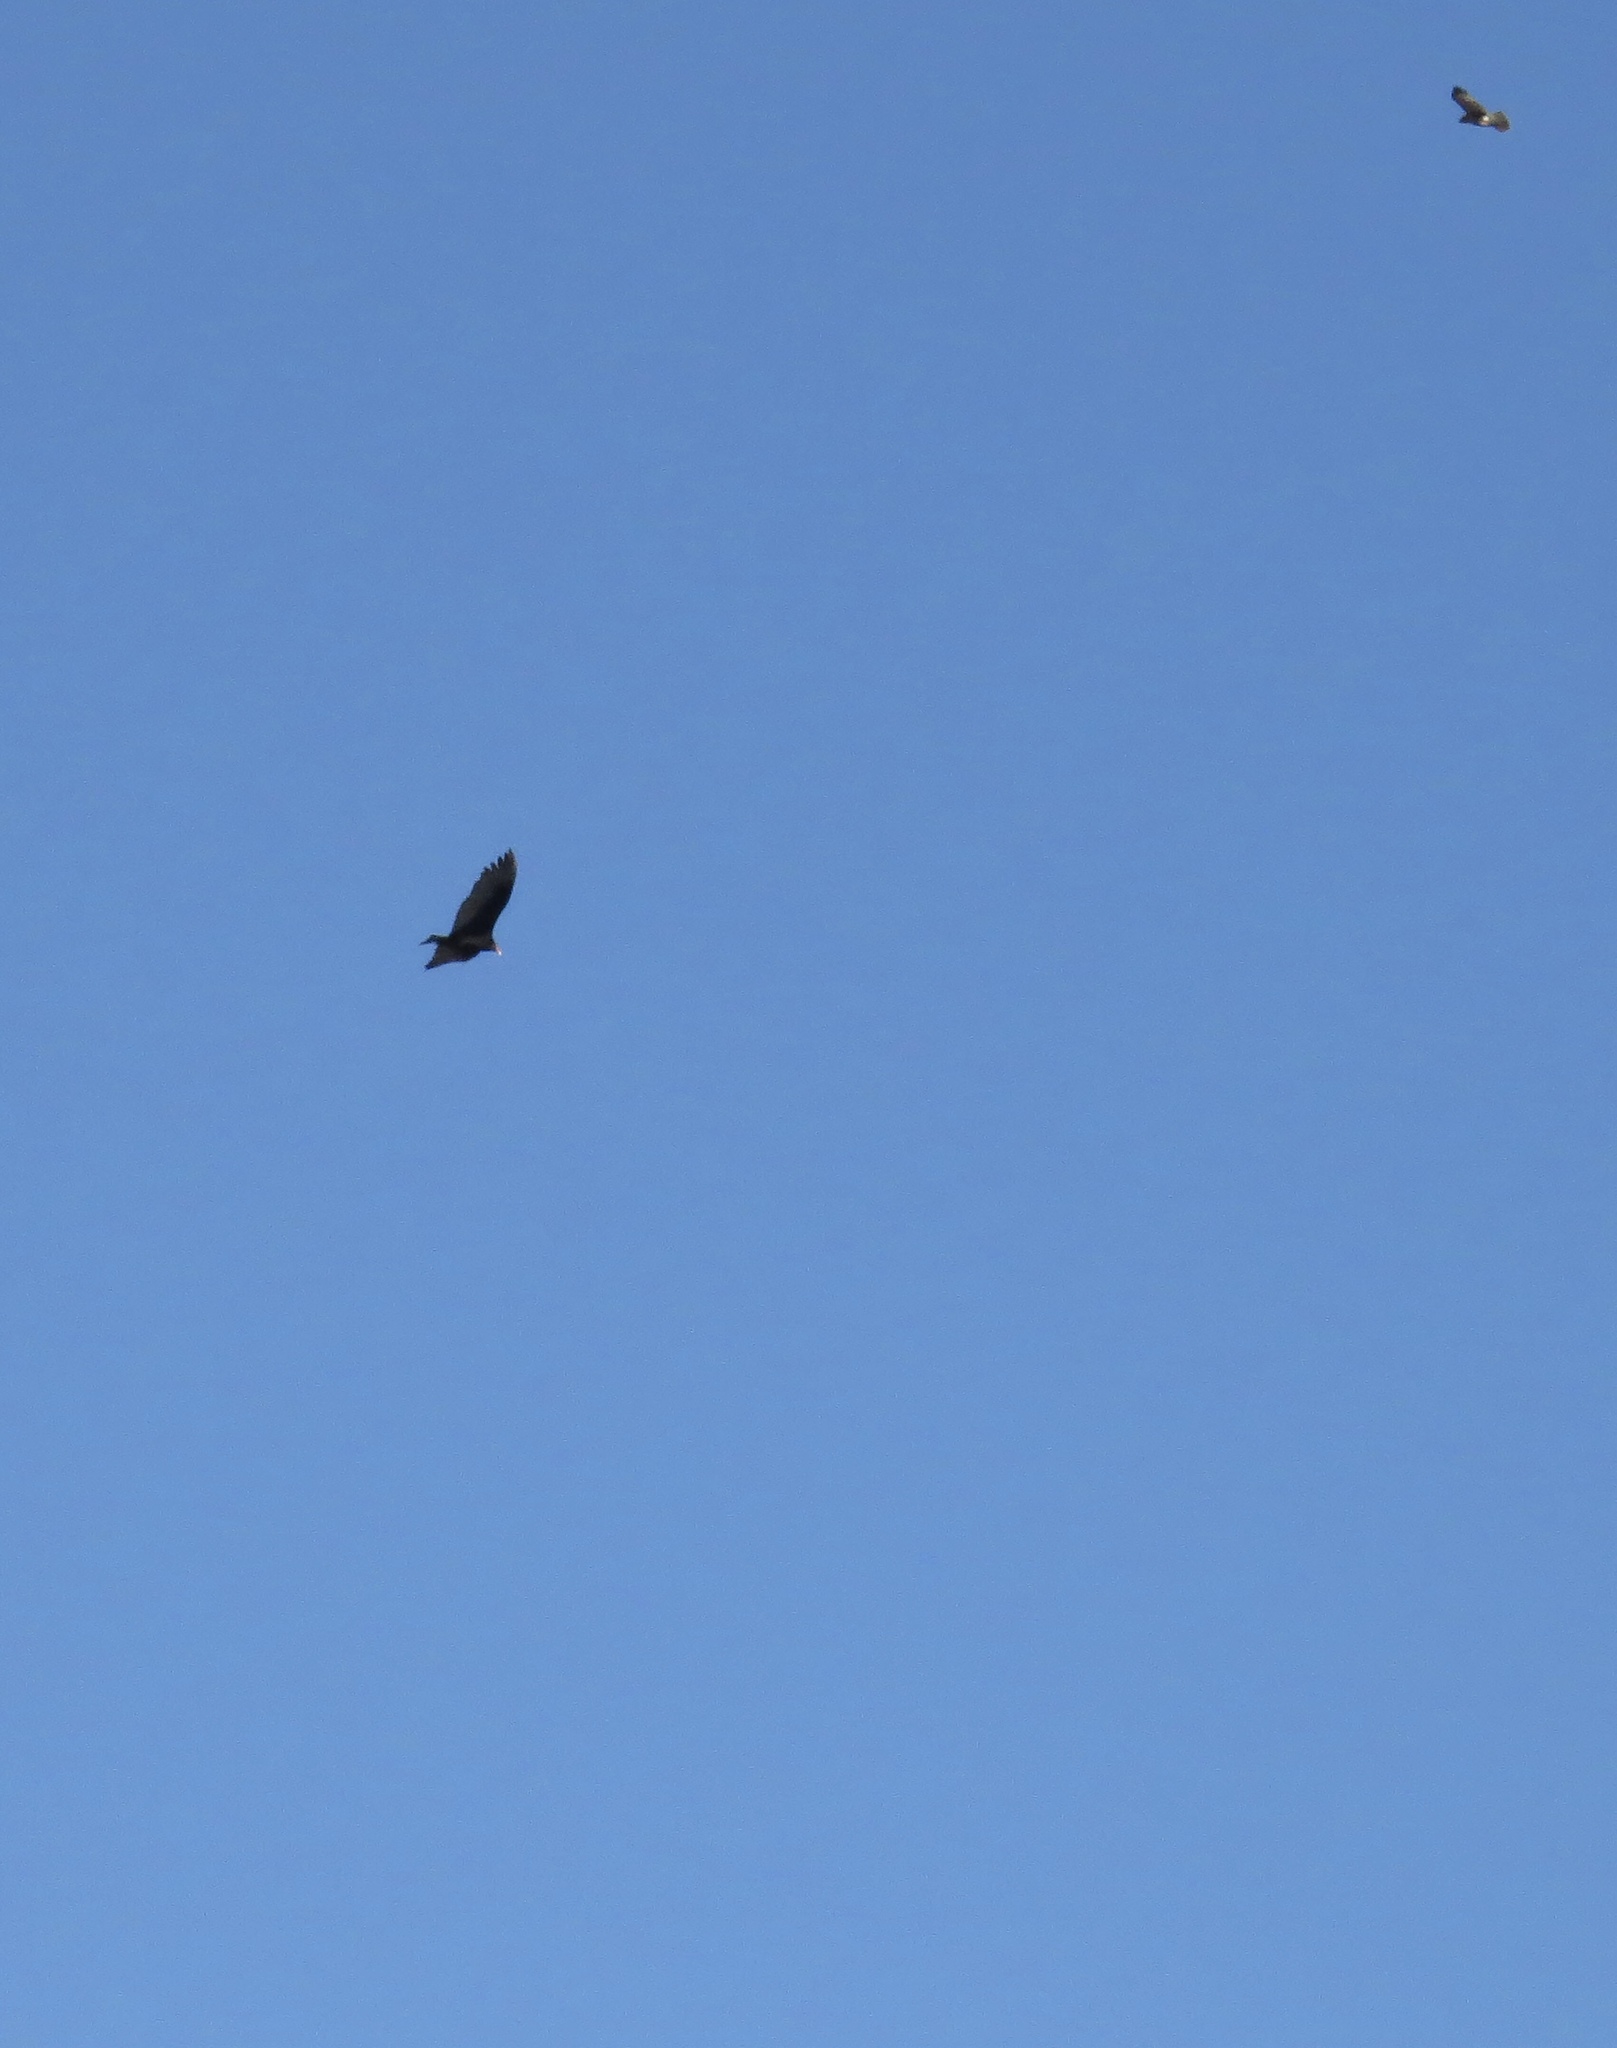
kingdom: Animalia
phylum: Chordata
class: Aves
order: Accipitriformes
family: Cathartidae
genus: Cathartes
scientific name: Cathartes aura
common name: Turkey vulture
